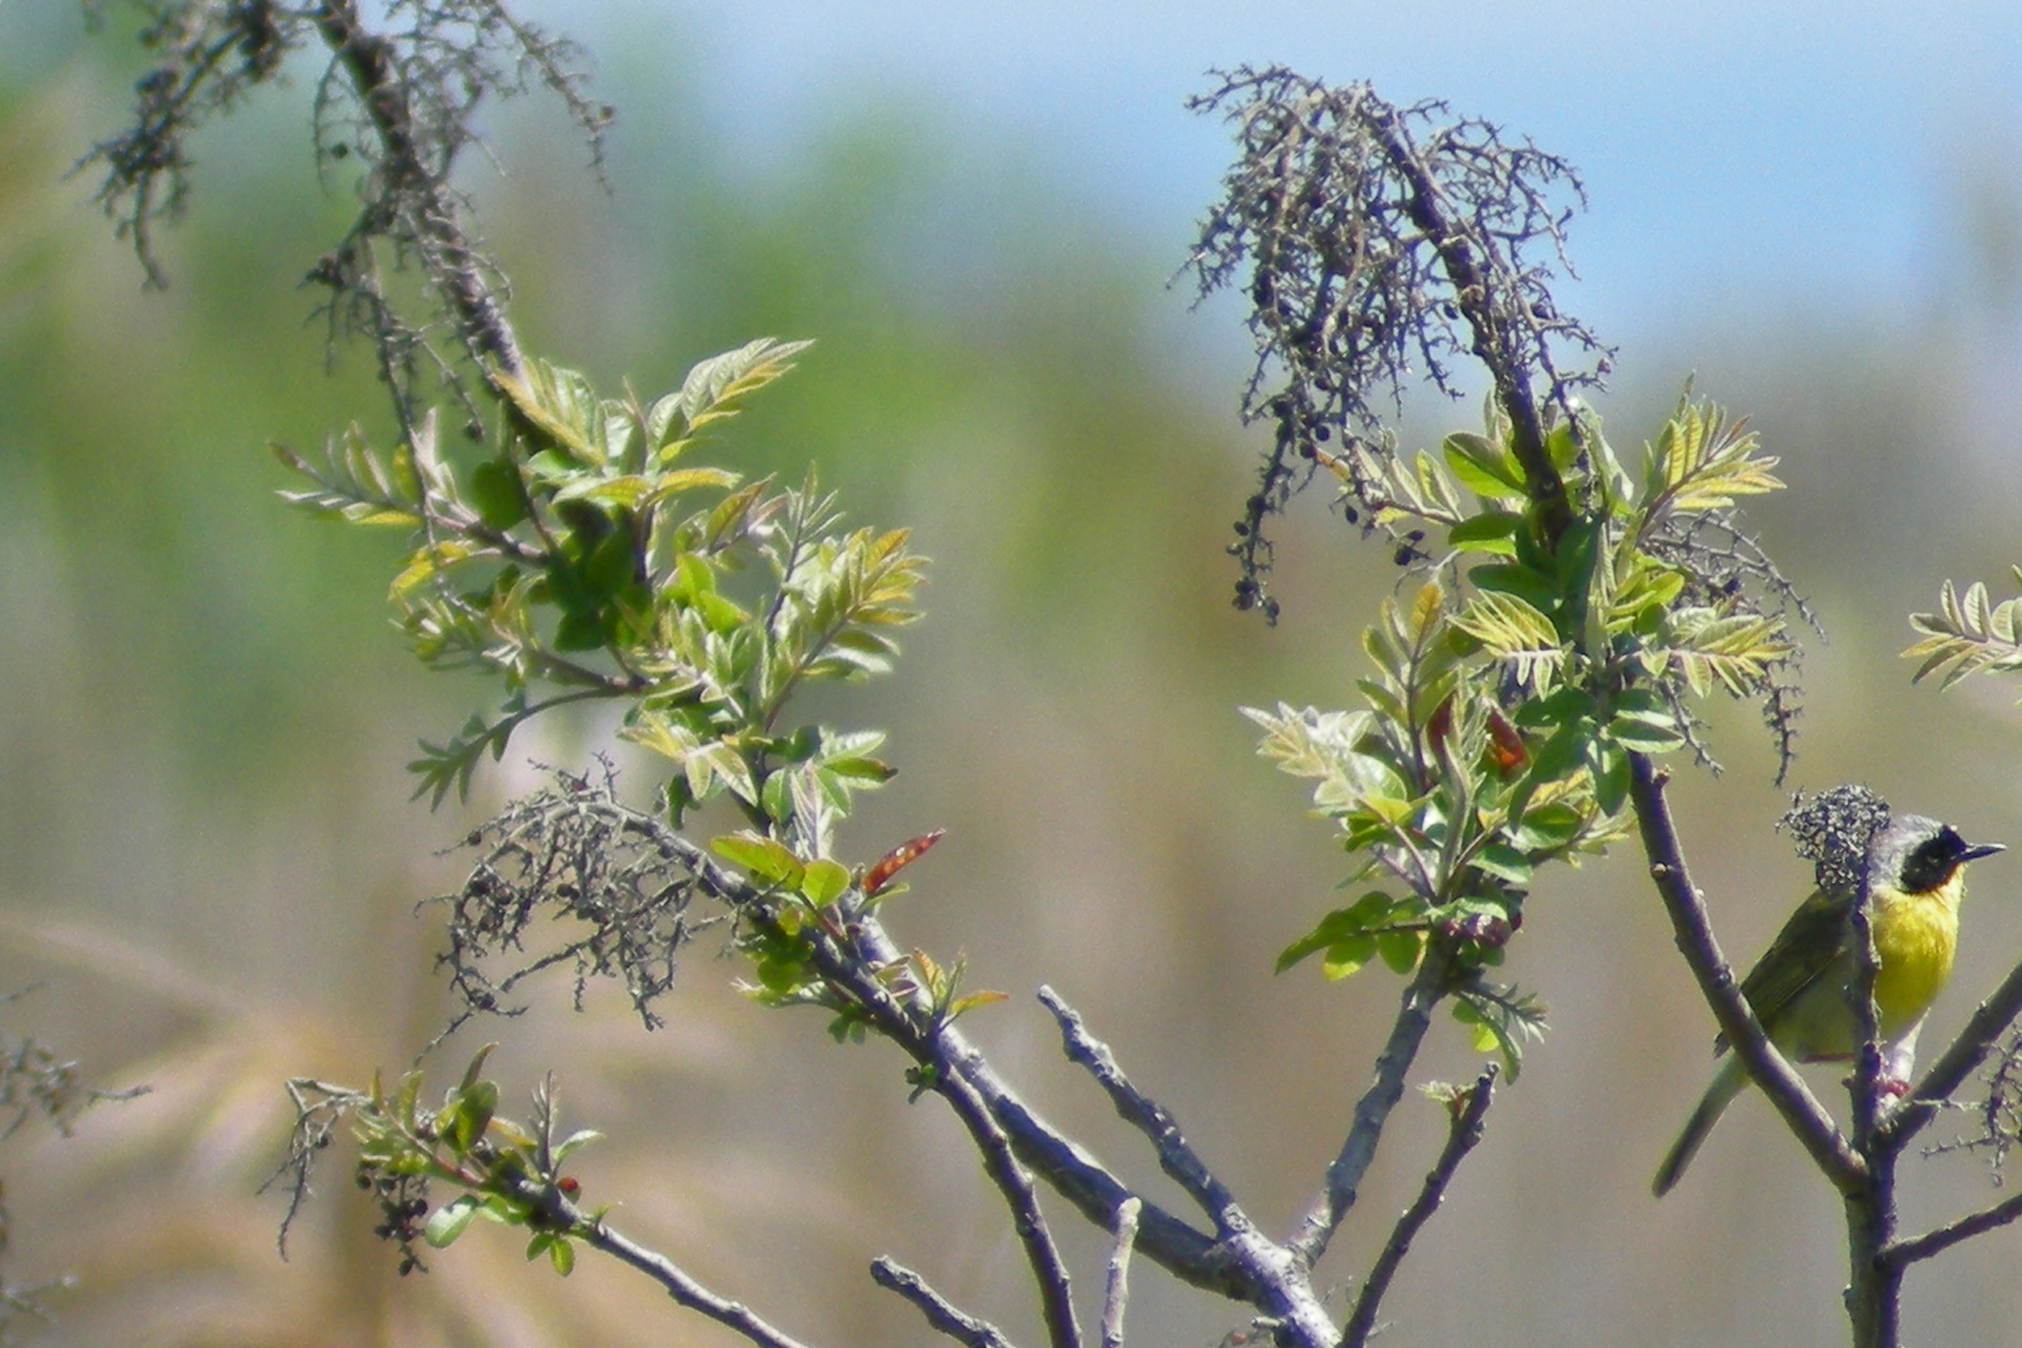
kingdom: Plantae
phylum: Tracheophyta
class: Magnoliopsida
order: Sapindales
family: Anacardiaceae
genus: Rhus
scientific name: Rhus copallina
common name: Shining sumac
